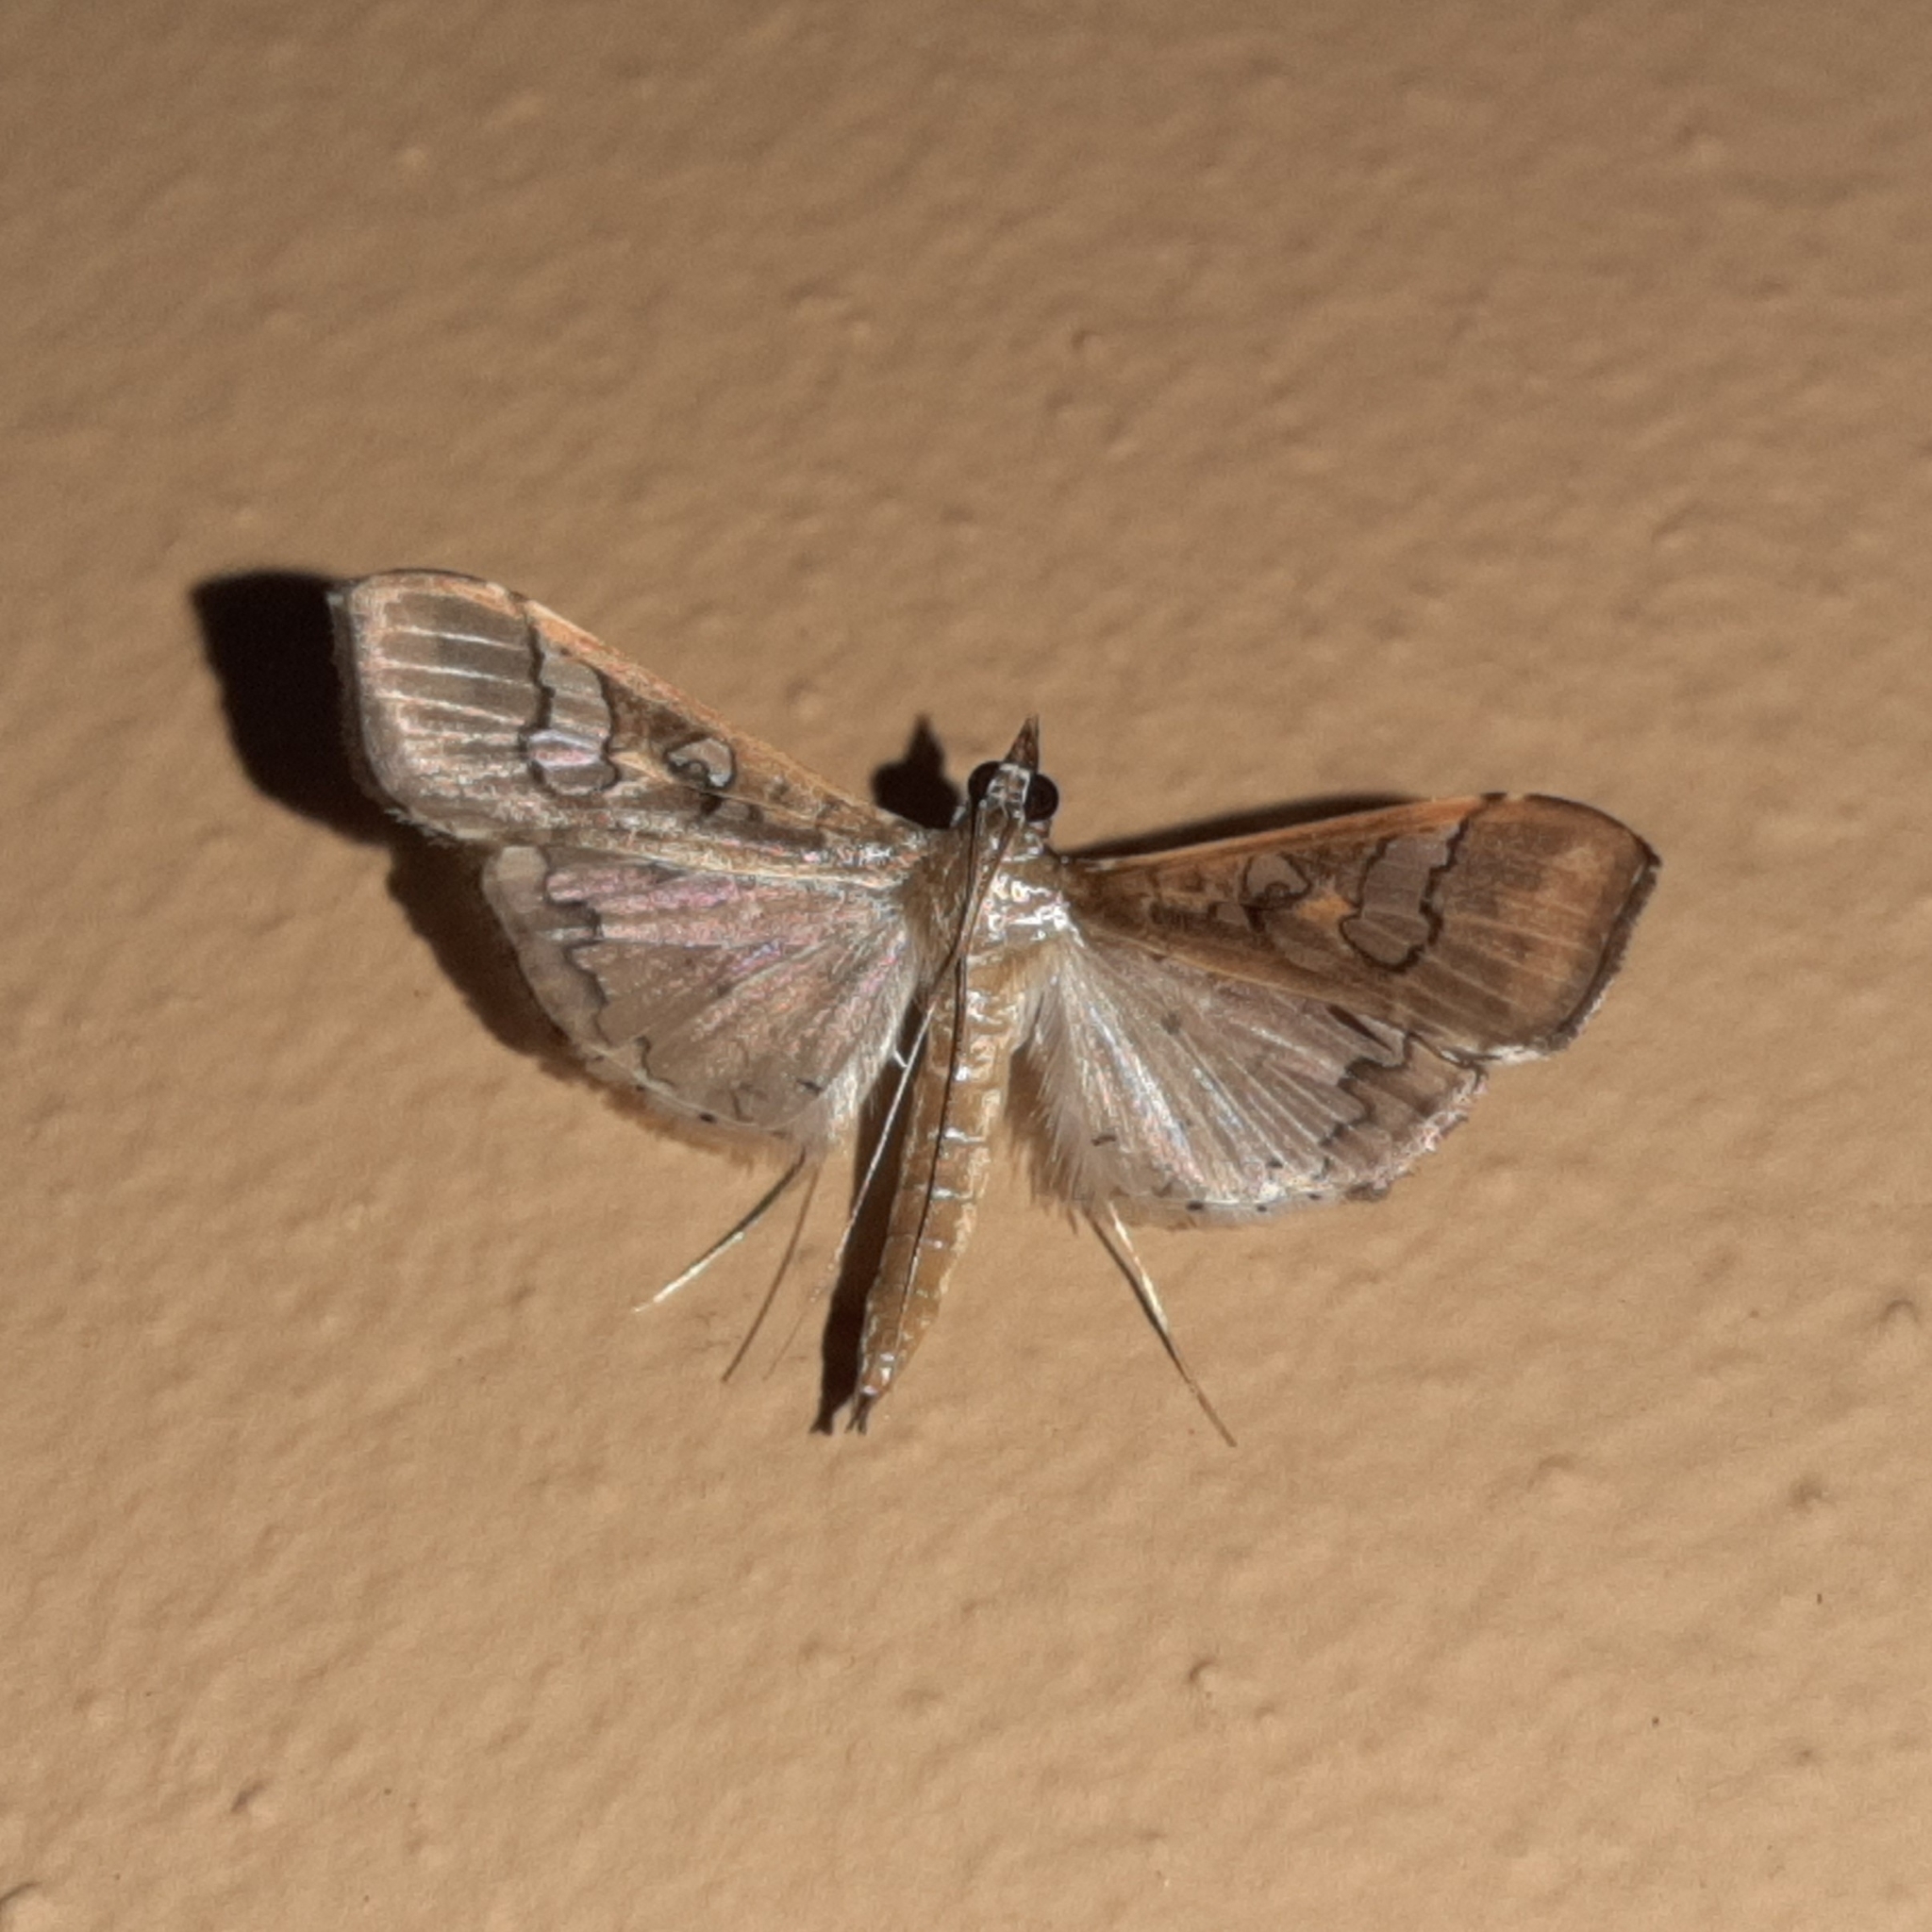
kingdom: Animalia
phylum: Arthropoda
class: Insecta
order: Lepidoptera
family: Crambidae
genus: Maruca
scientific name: Maruca vitrata
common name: Maruca pod borer
